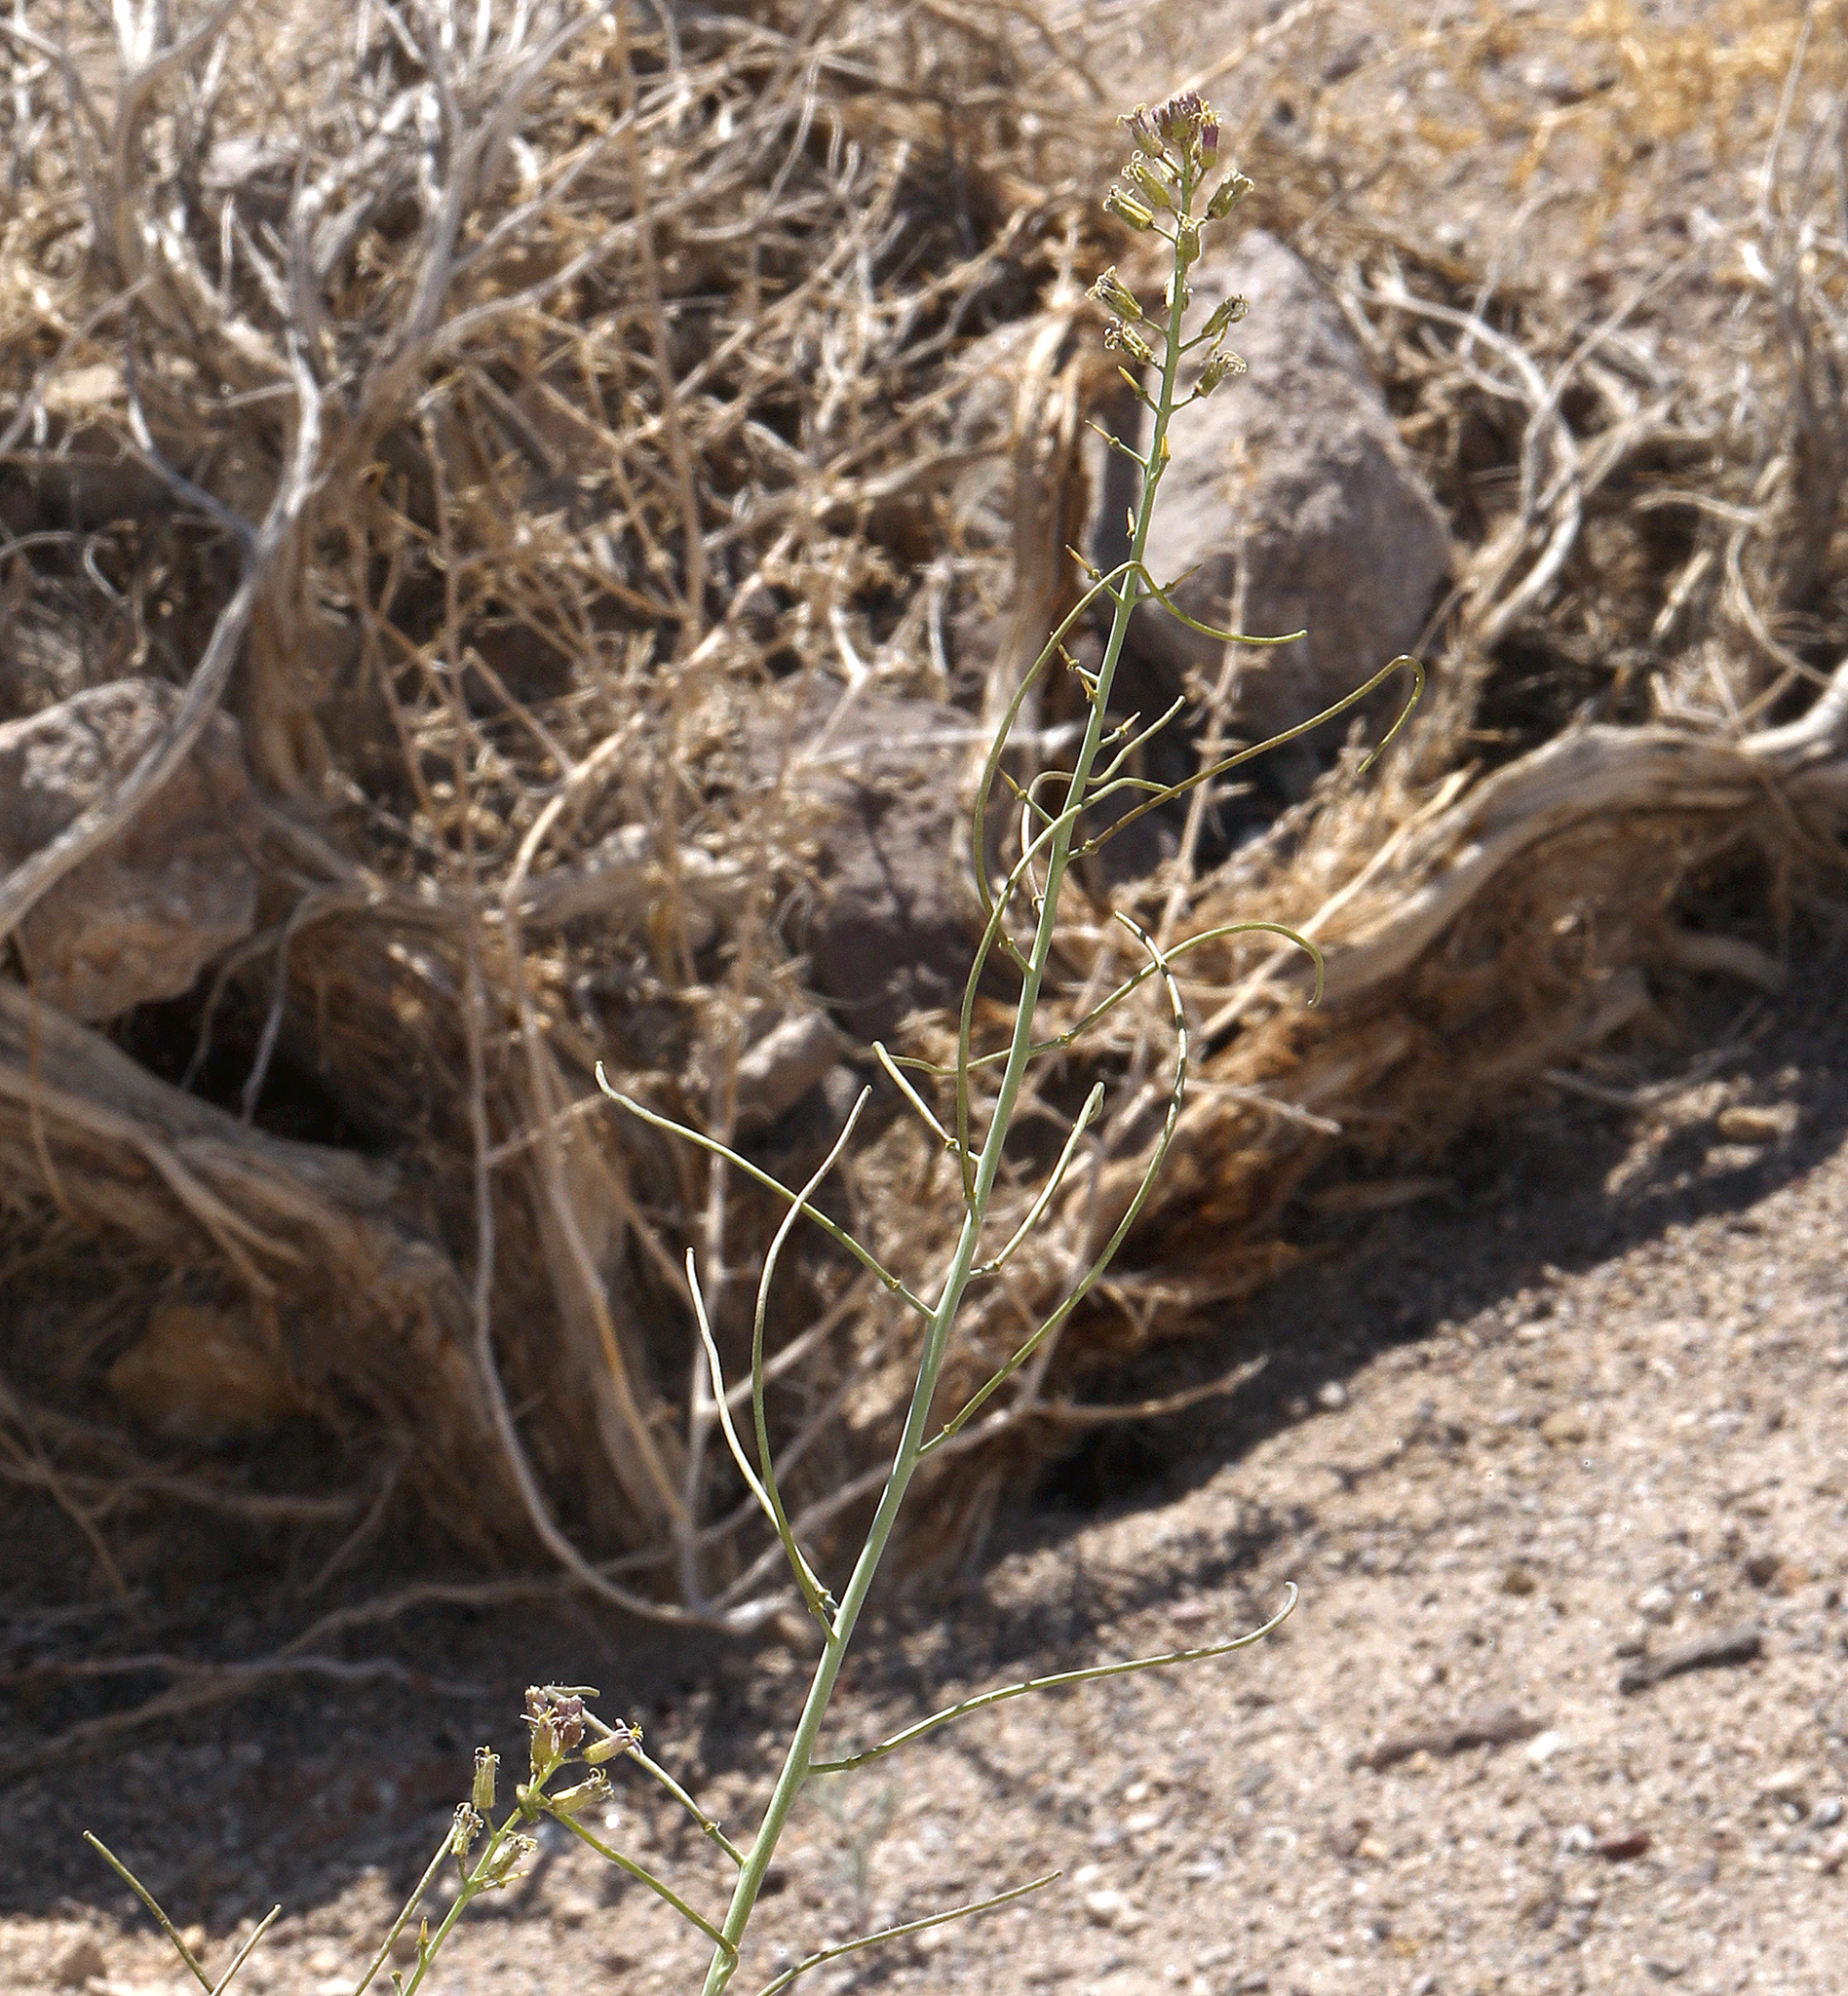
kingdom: Plantae
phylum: Tracheophyta
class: Magnoliopsida
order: Brassicales
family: Brassicaceae
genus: Streptanthus
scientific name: Streptanthus pilosus
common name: Chocolate drops
